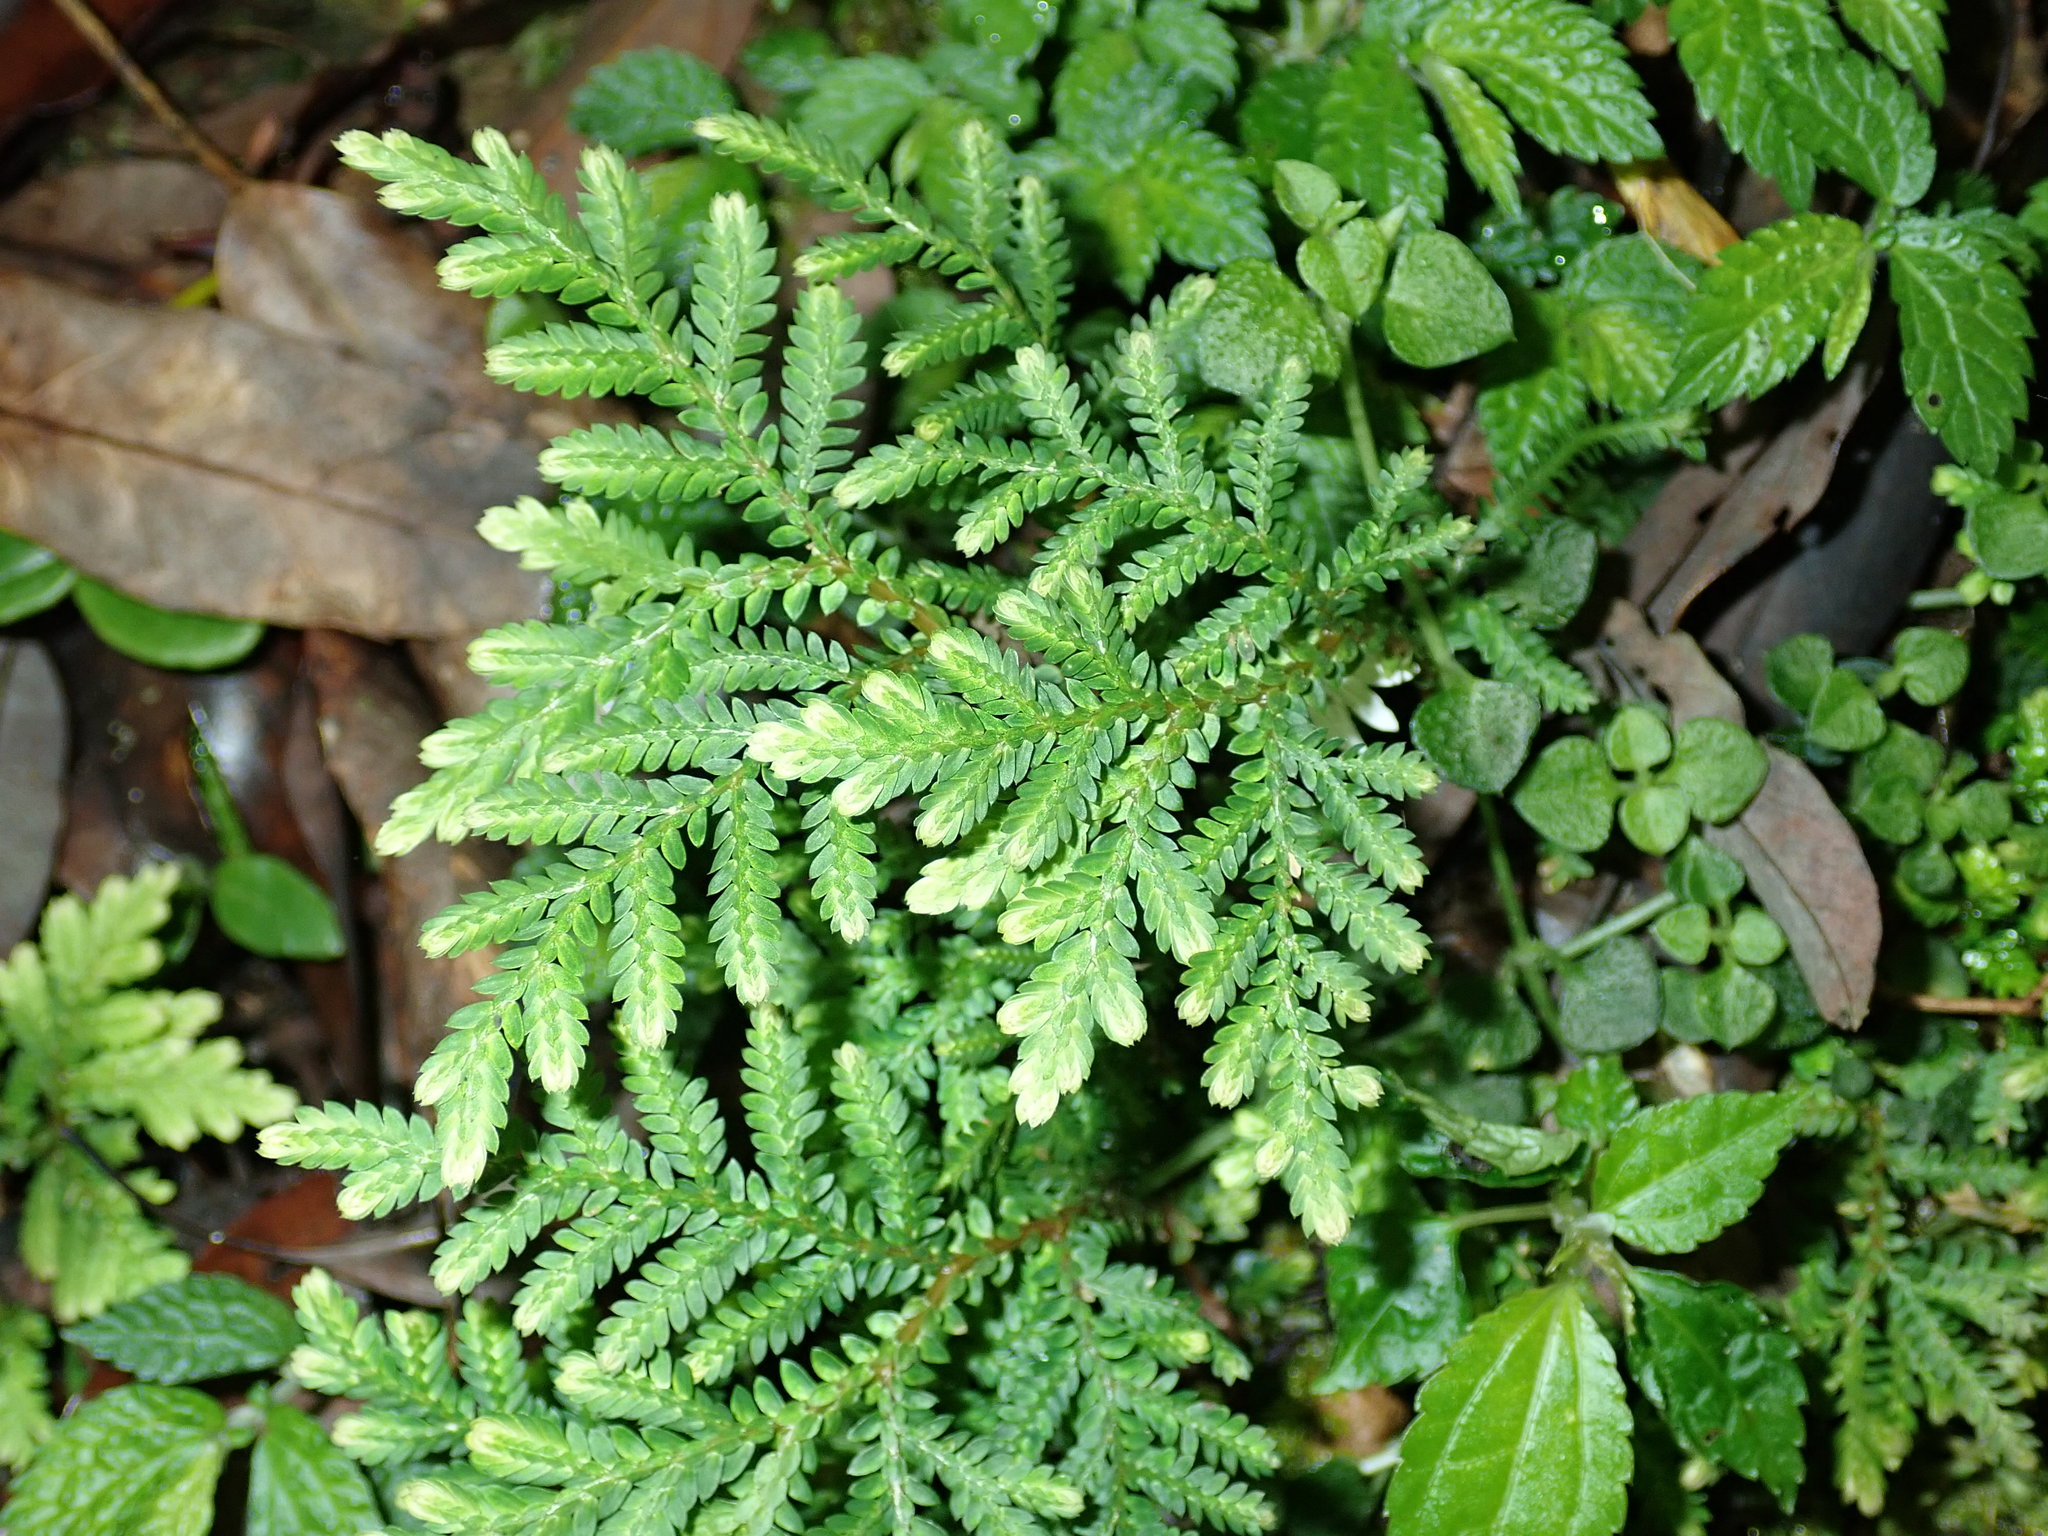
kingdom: Plantae
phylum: Tracheophyta
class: Lycopodiopsida
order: Selaginellales
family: Selaginellaceae
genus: Selaginella
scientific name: Selaginella delicatula
